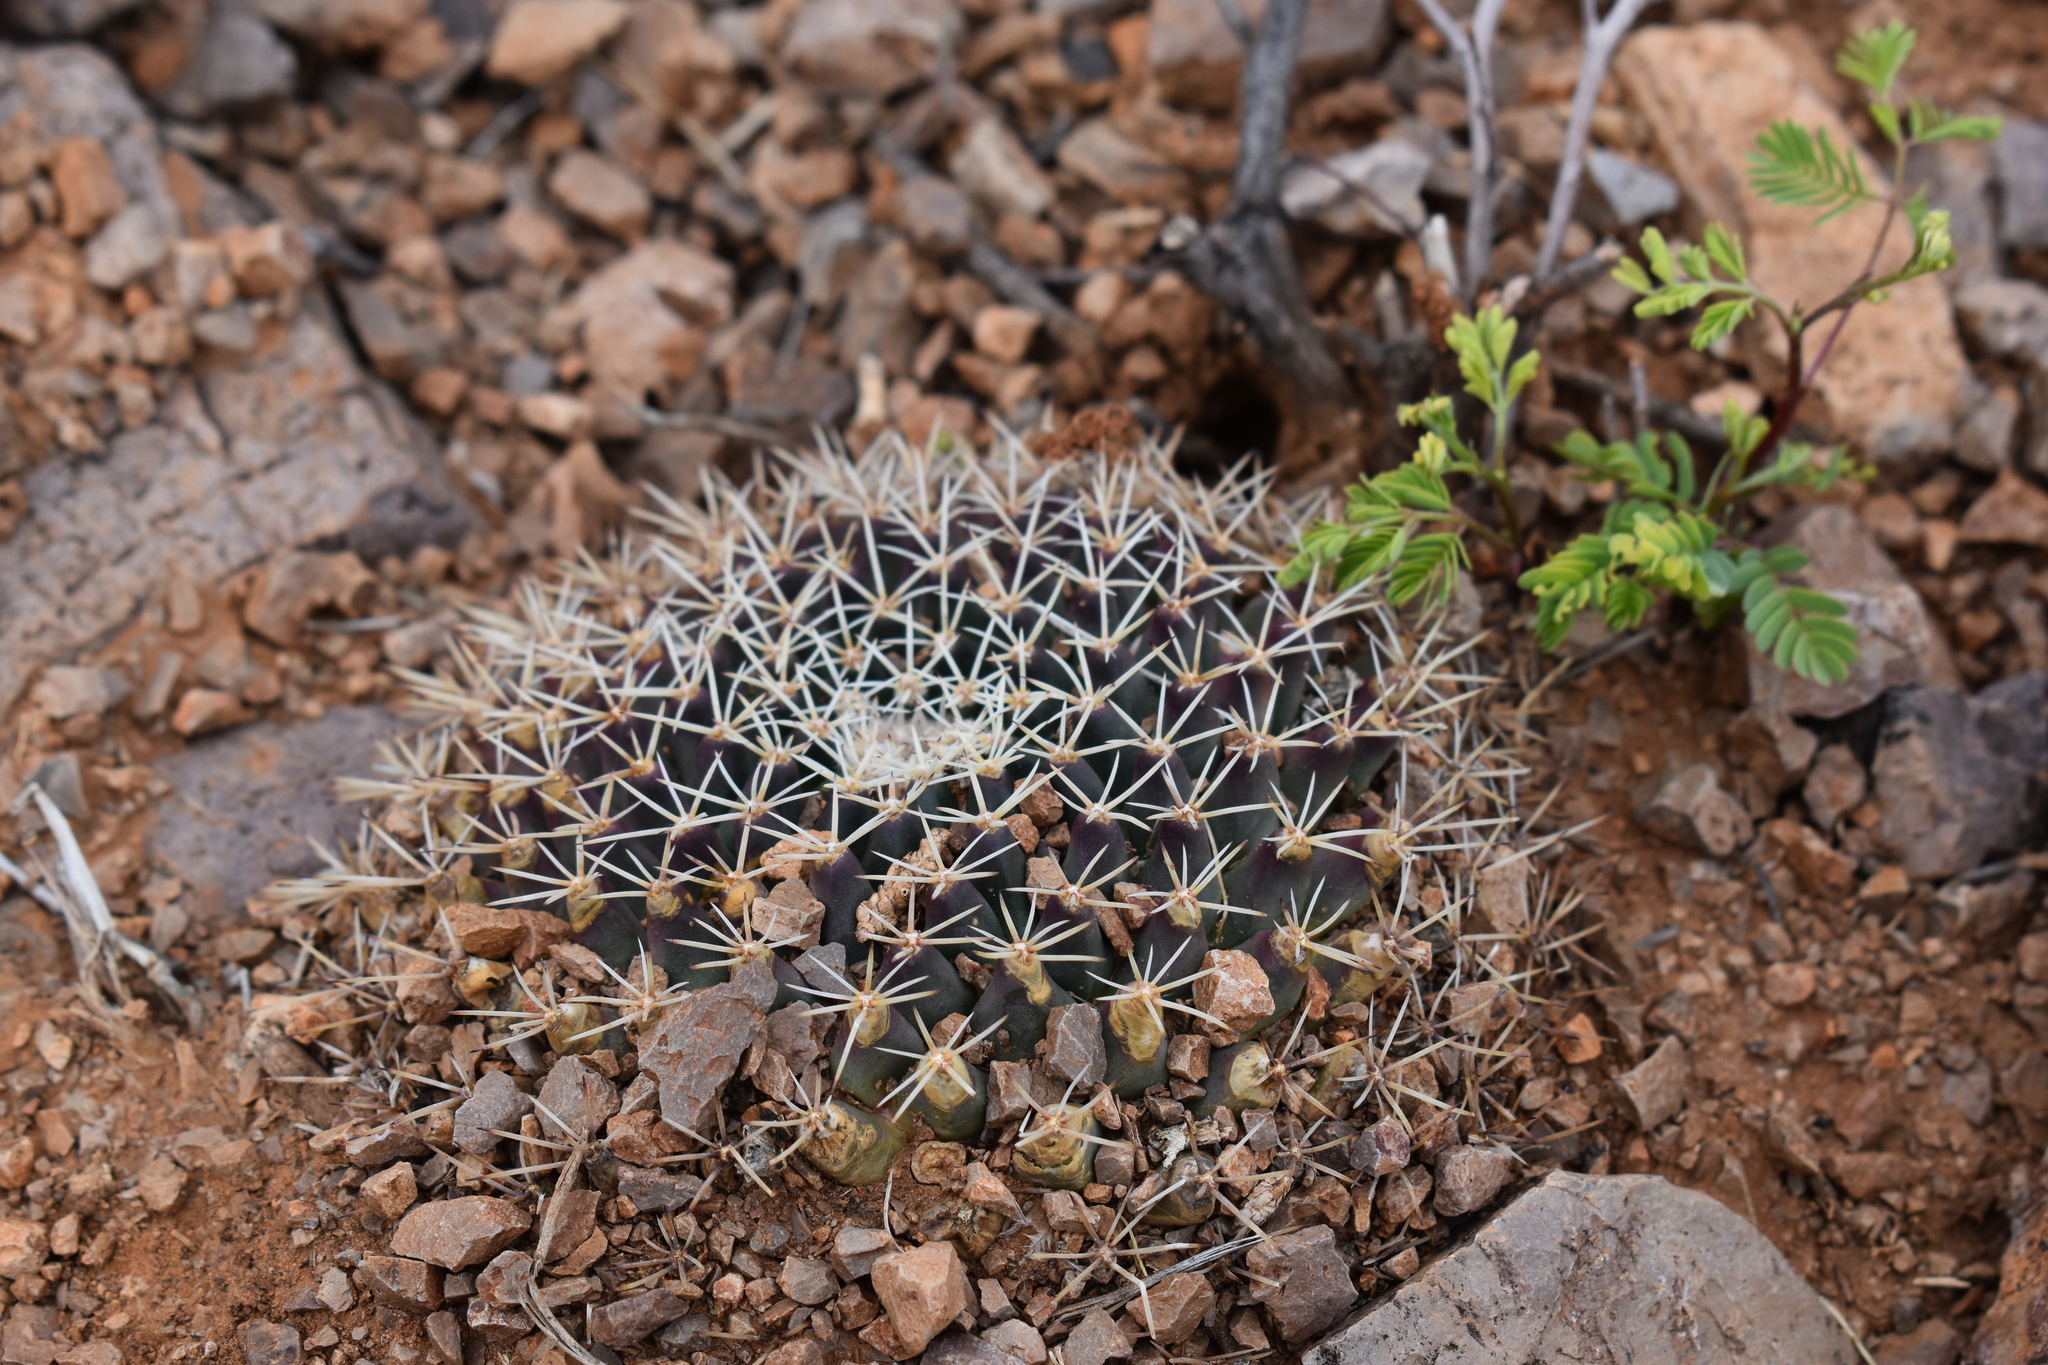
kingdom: Plantae
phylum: Tracheophyta
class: Magnoliopsida
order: Caryophyllales
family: Cactaceae
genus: Mammillaria
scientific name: Mammillaria heyderi
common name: Little nipple cactus
